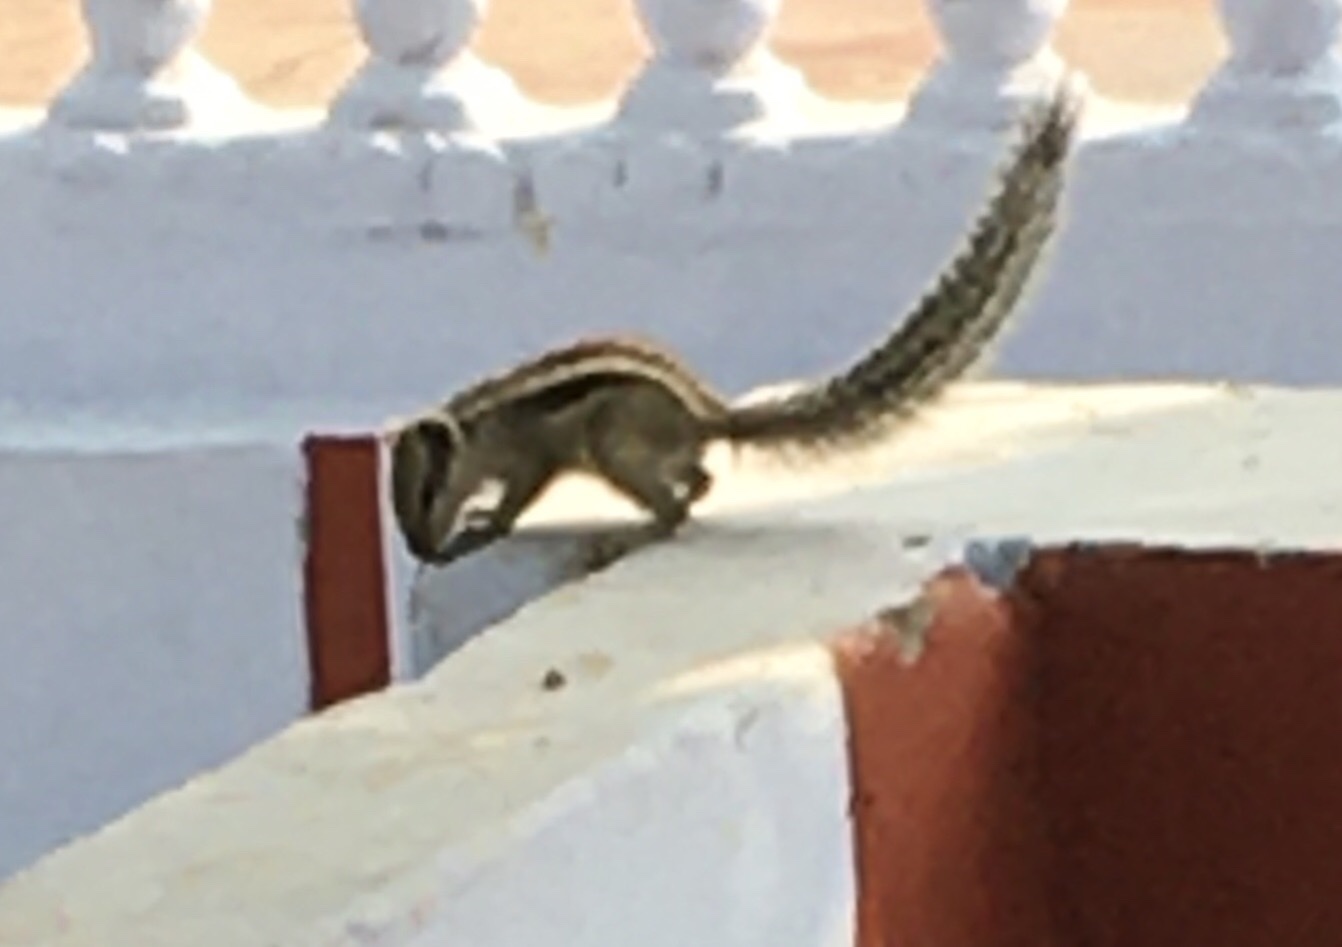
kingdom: Animalia
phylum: Chordata
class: Mammalia
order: Rodentia
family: Sciuridae
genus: Funambulus
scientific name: Funambulus pennantii
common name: Northern palm squirrel
